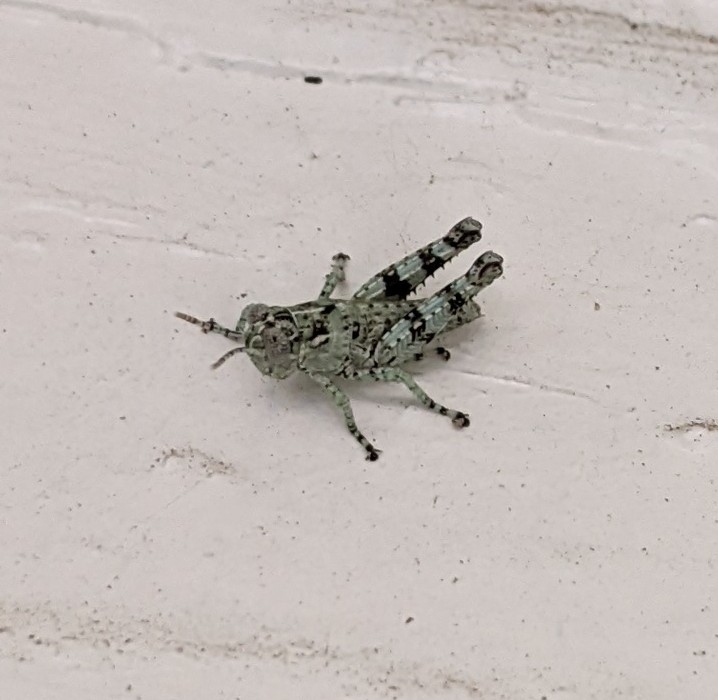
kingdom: Animalia
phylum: Arthropoda
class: Insecta
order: Orthoptera
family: Acrididae
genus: Melanoplus
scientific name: Melanoplus punctulatus
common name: Pine-tree spur-throat grasshopper
